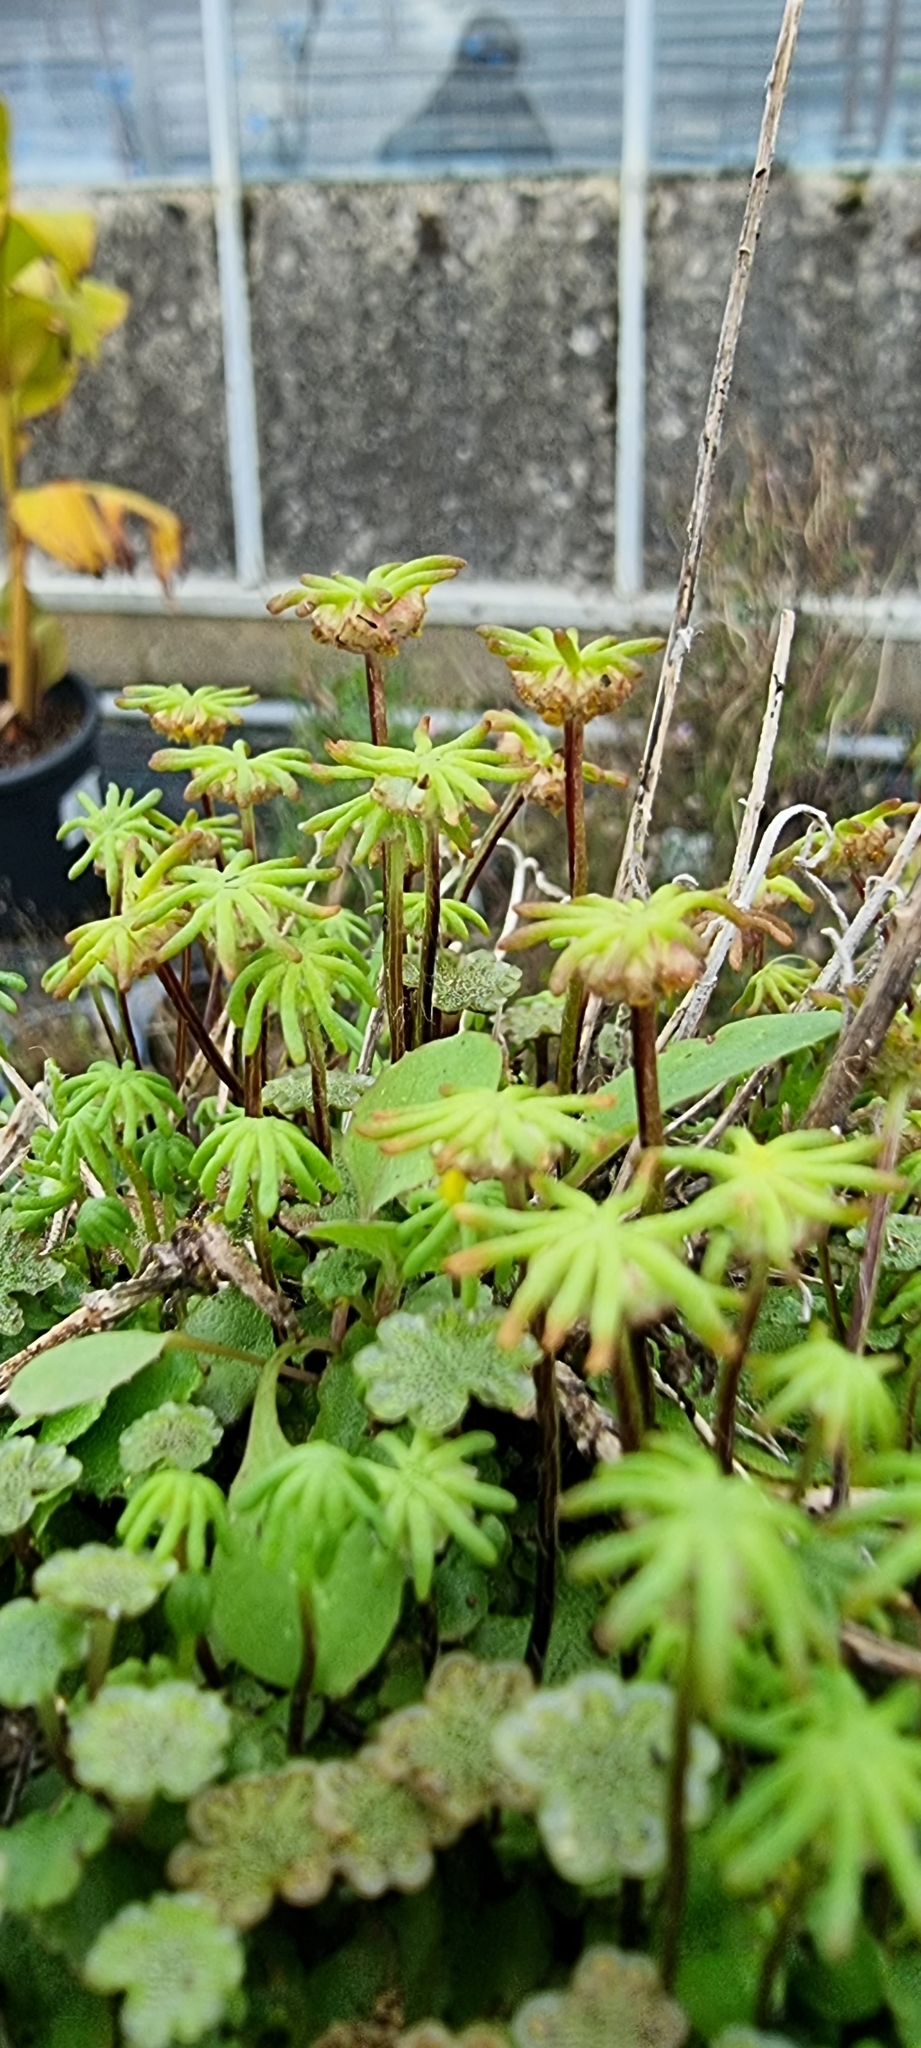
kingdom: Plantae
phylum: Marchantiophyta
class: Marchantiopsida
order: Marchantiales
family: Marchantiaceae
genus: Marchantia
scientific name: Marchantia polymorpha
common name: Common liverwort
